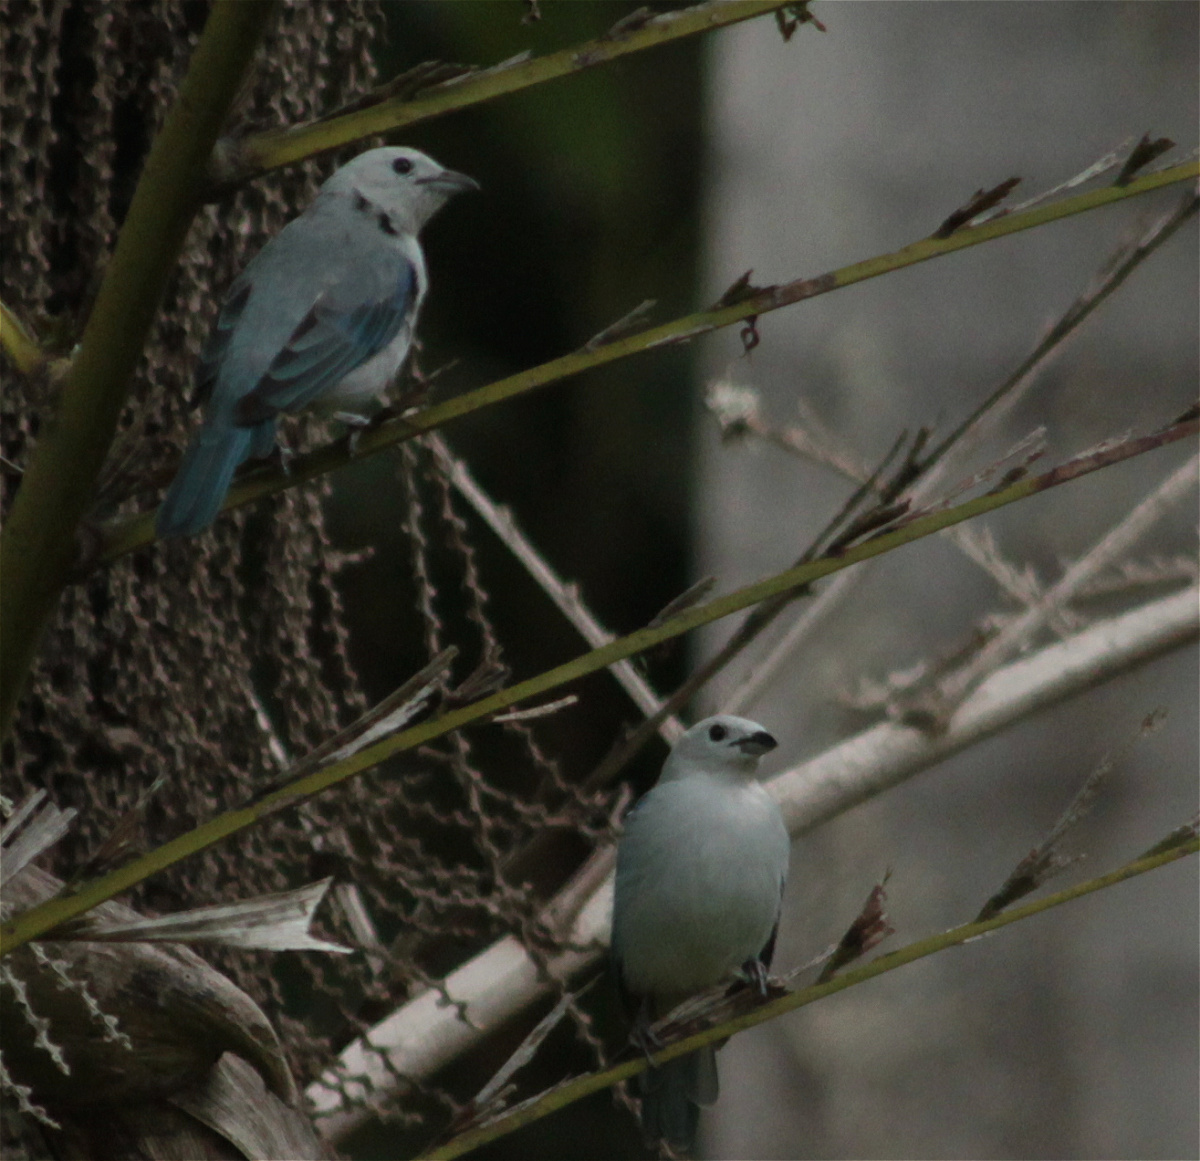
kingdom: Animalia
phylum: Chordata
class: Aves
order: Passeriformes
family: Thraupidae
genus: Thraupis
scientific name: Thraupis episcopus
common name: Blue-grey tanager
